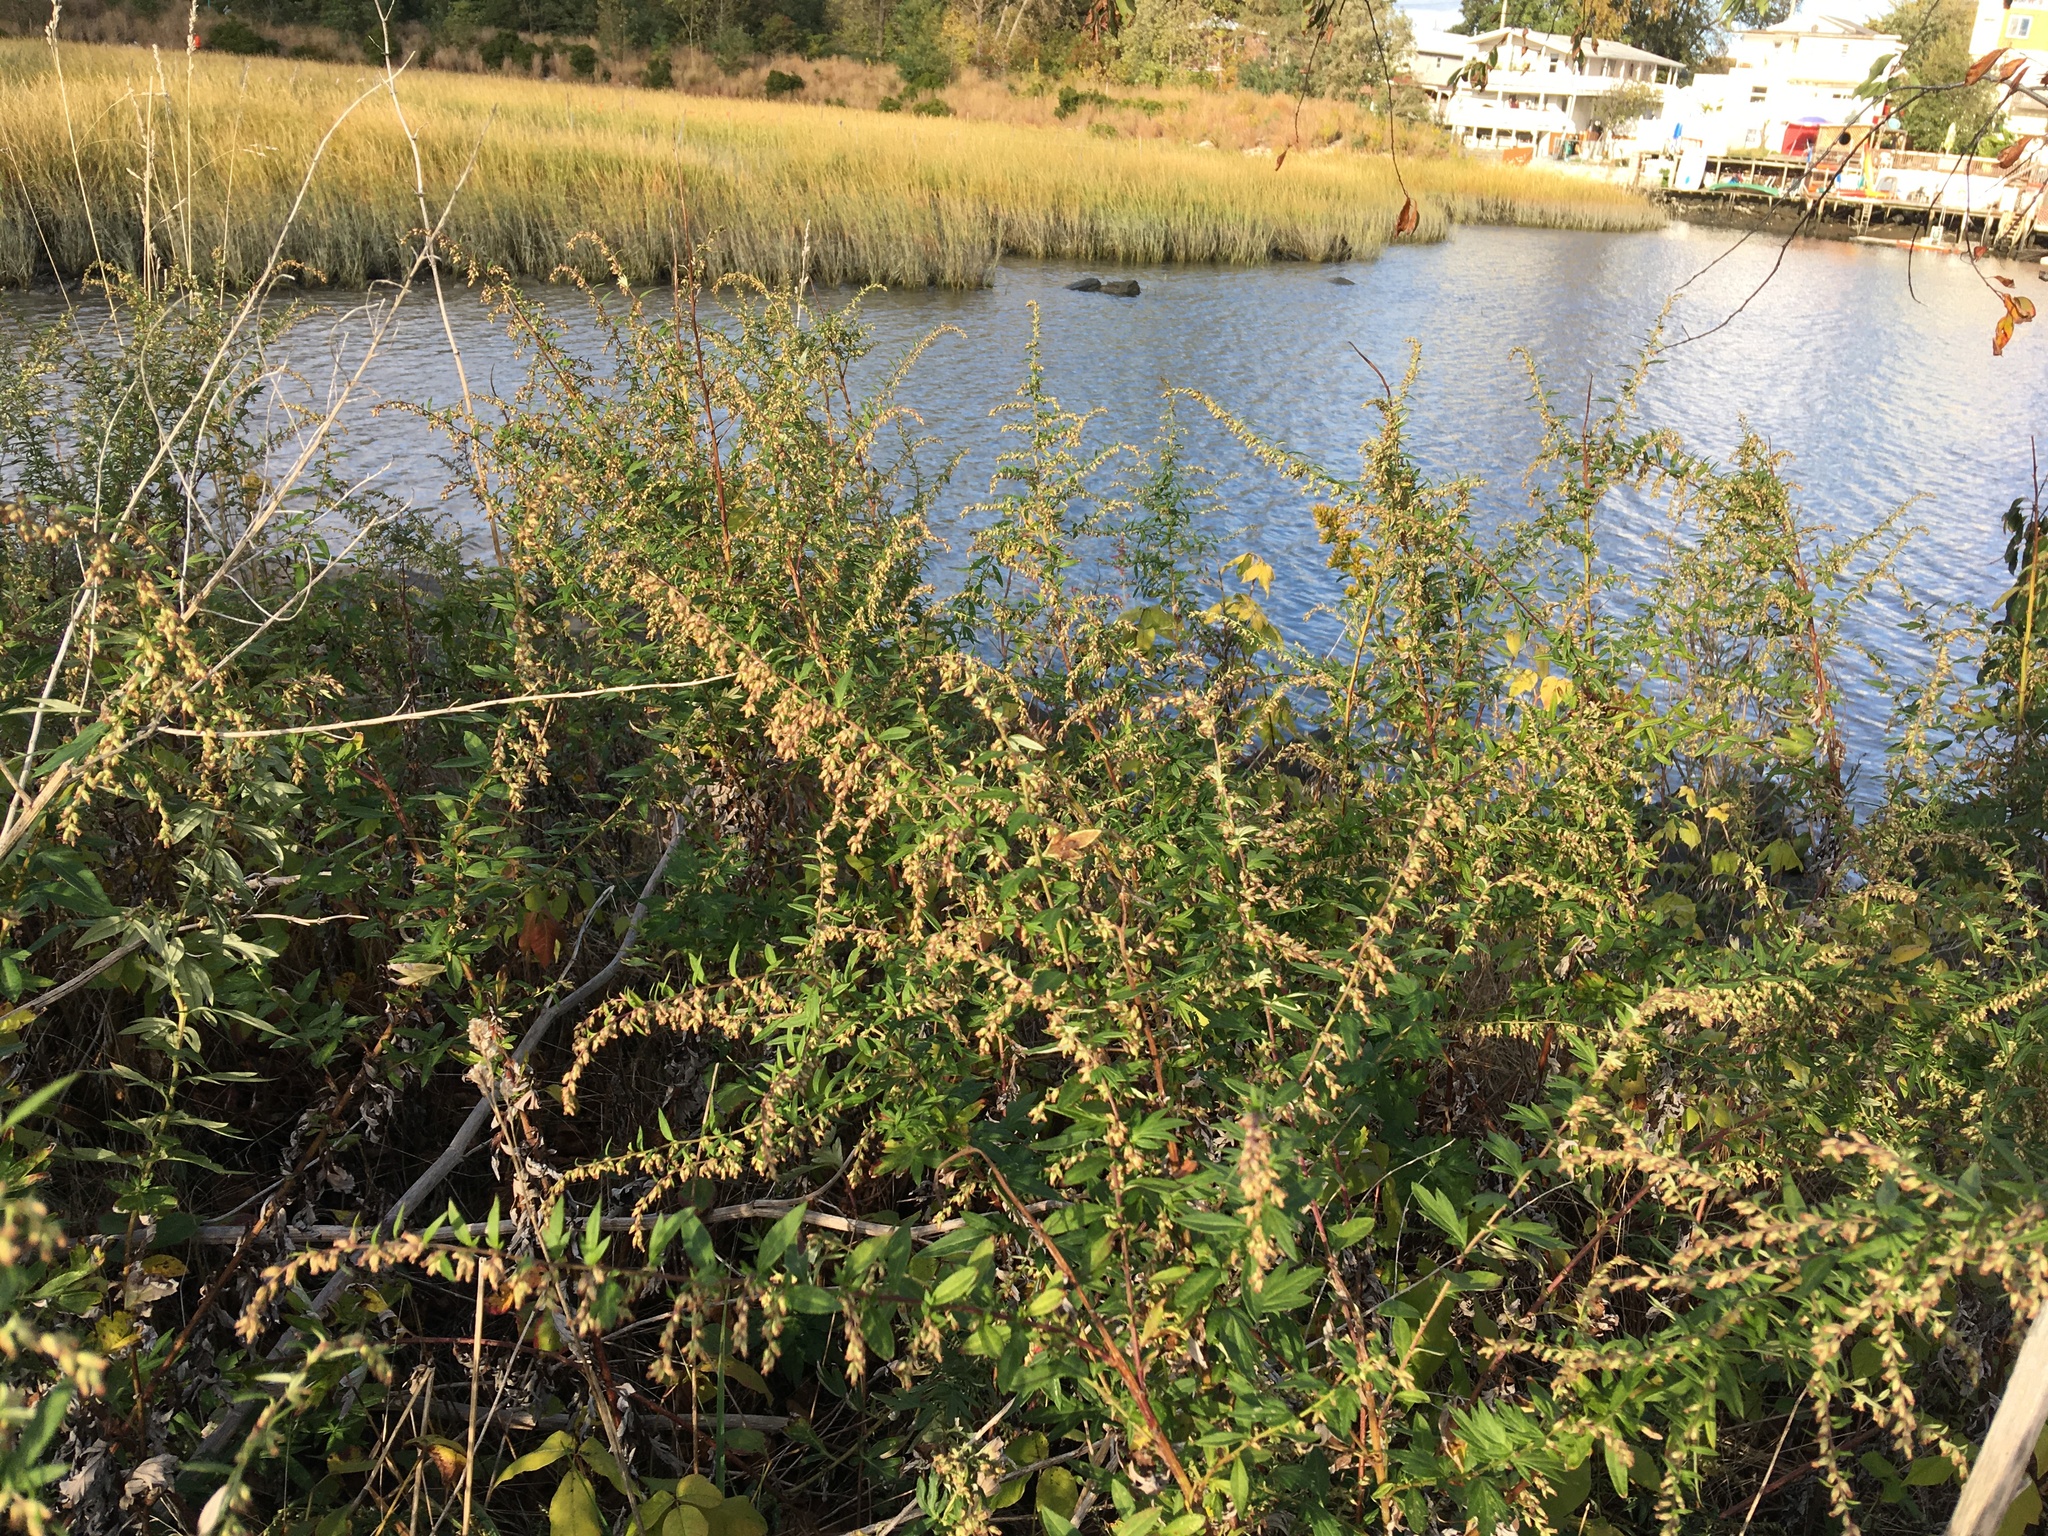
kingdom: Plantae
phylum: Tracheophyta
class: Magnoliopsida
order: Asterales
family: Asteraceae
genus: Artemisia
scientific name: Artemisia vulgaris
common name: Mugwort
